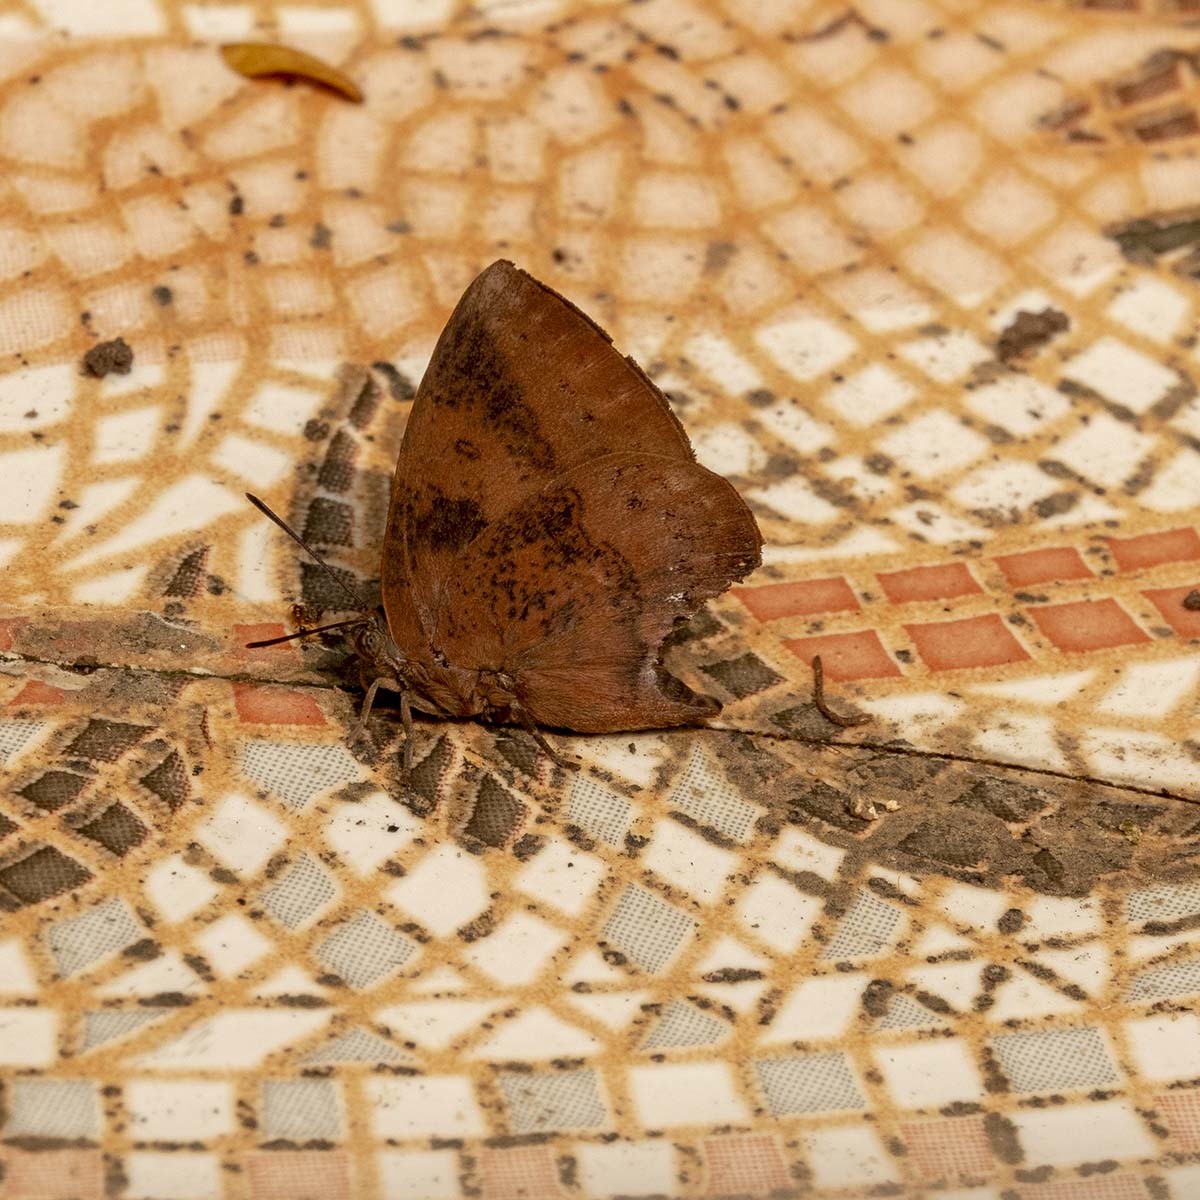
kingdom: Animalia
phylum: Arthropoda
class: Insecta
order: Lepidoptera
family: Lycaenidae
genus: Amblypodia
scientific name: Amblypodia anita
